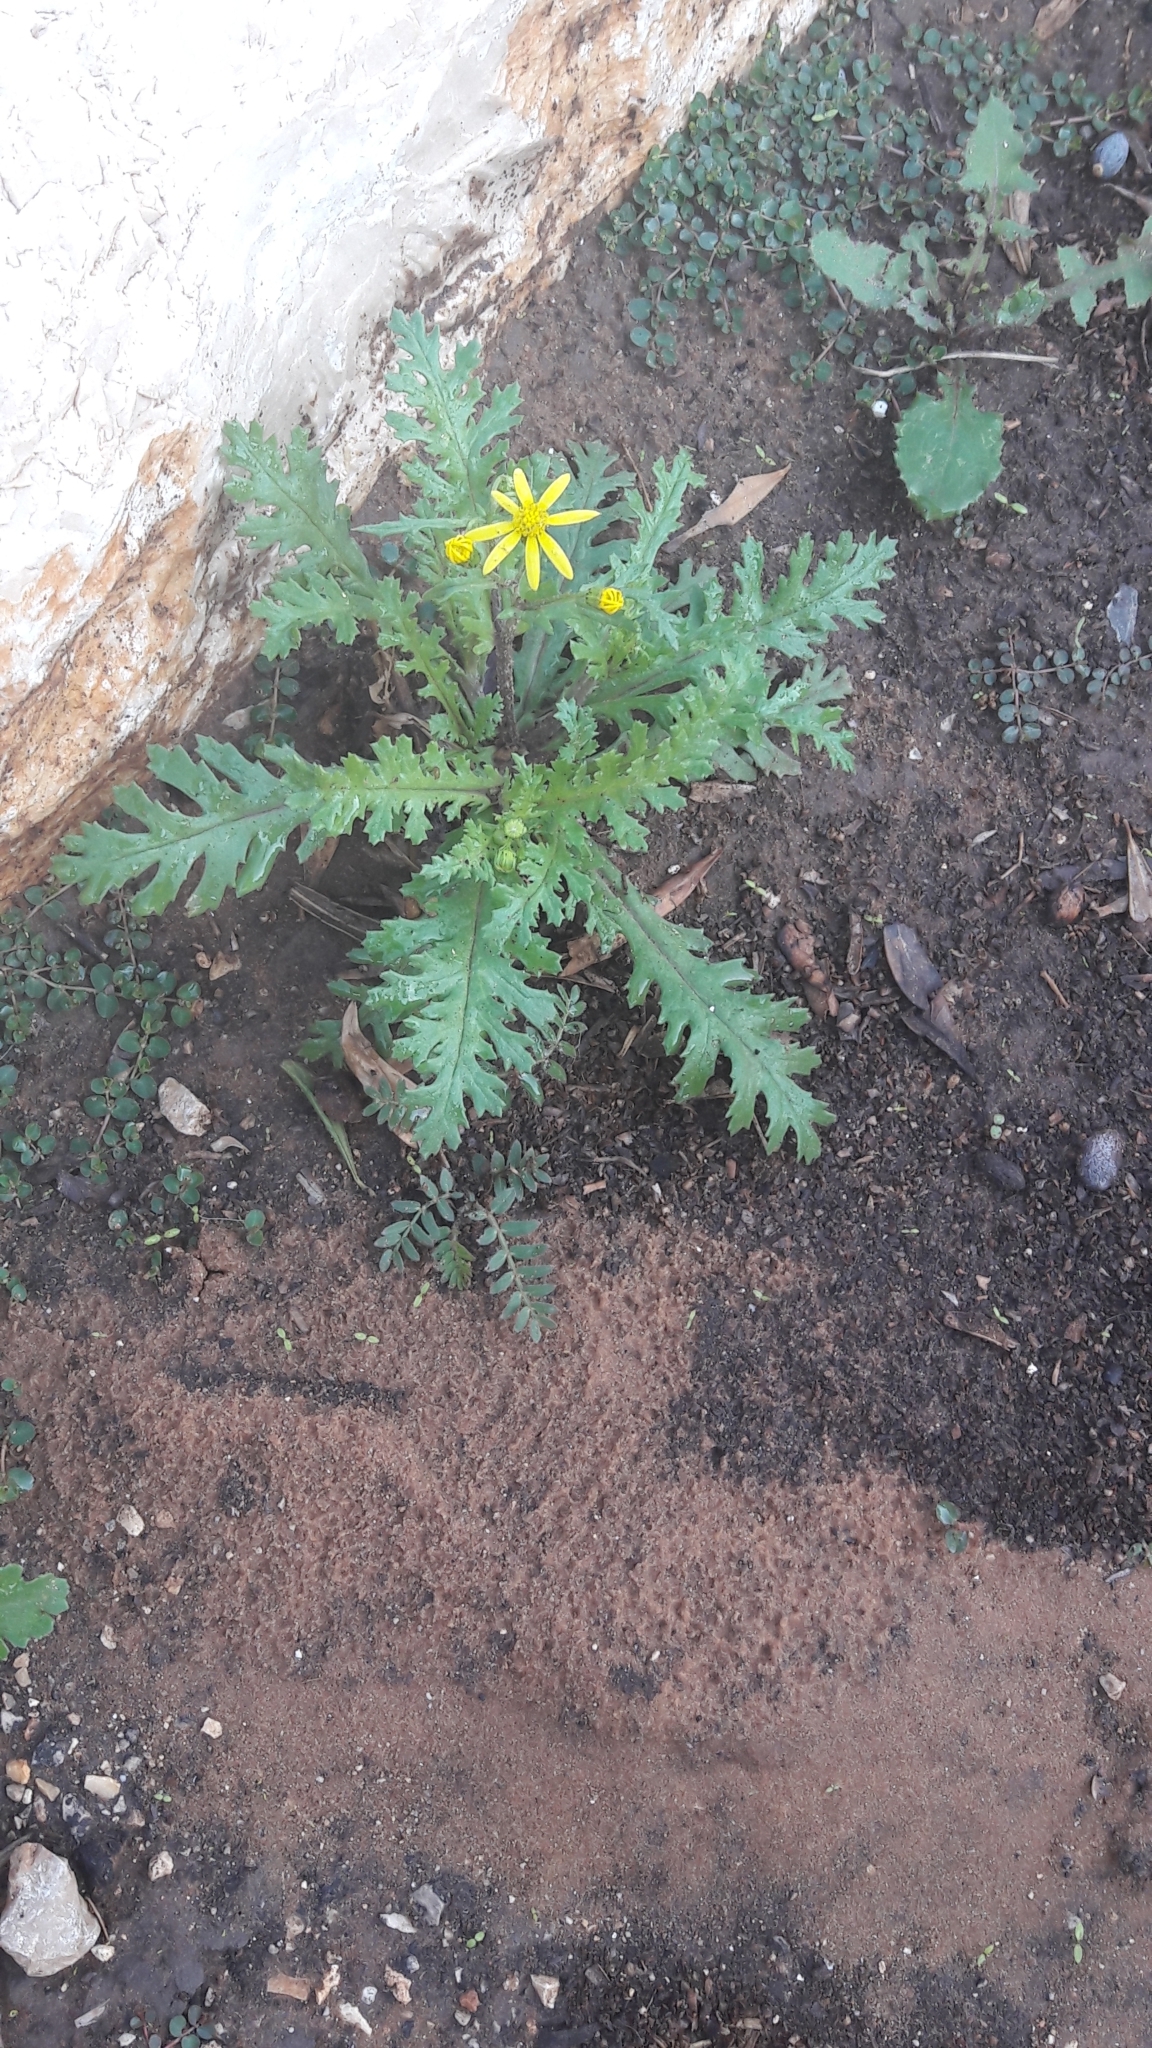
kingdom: Plantae
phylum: Tracheophyta
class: Magnoliopsida
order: Asterales
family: Asteraceae
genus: Senecio
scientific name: Senecio vernalis
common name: Eastern groundsel
